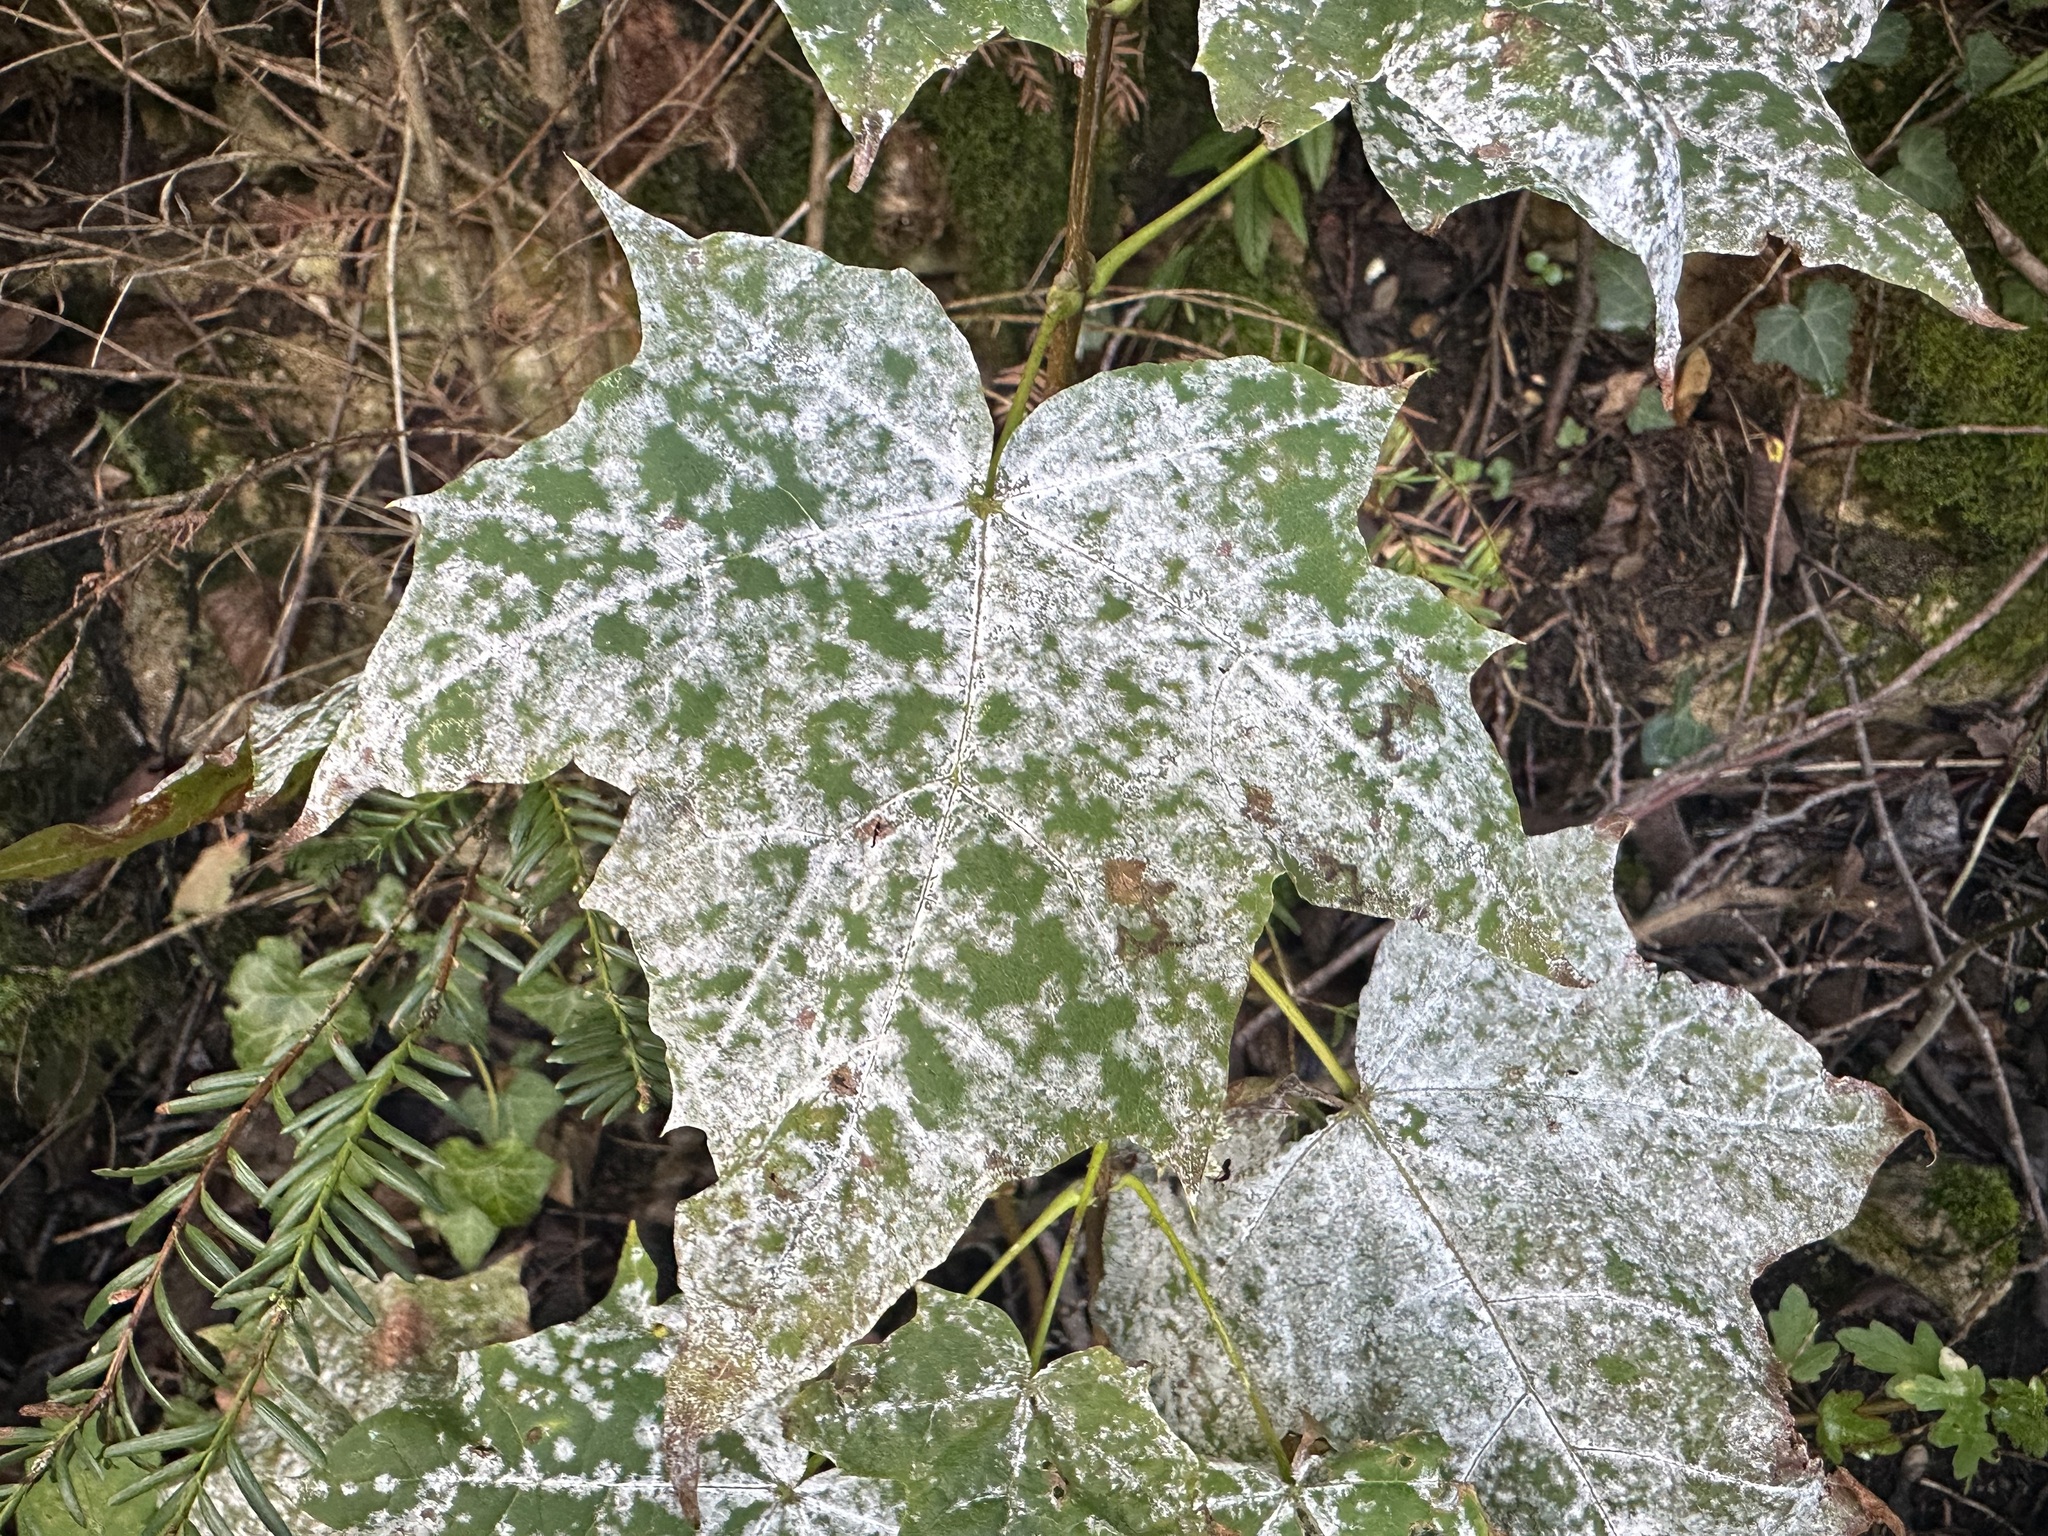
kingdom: Fungi
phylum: Ascomycota
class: Leotiomycetes
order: Helotiales
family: Erysiphaceae
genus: Sawadaea
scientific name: Sawadaea tulasnei
